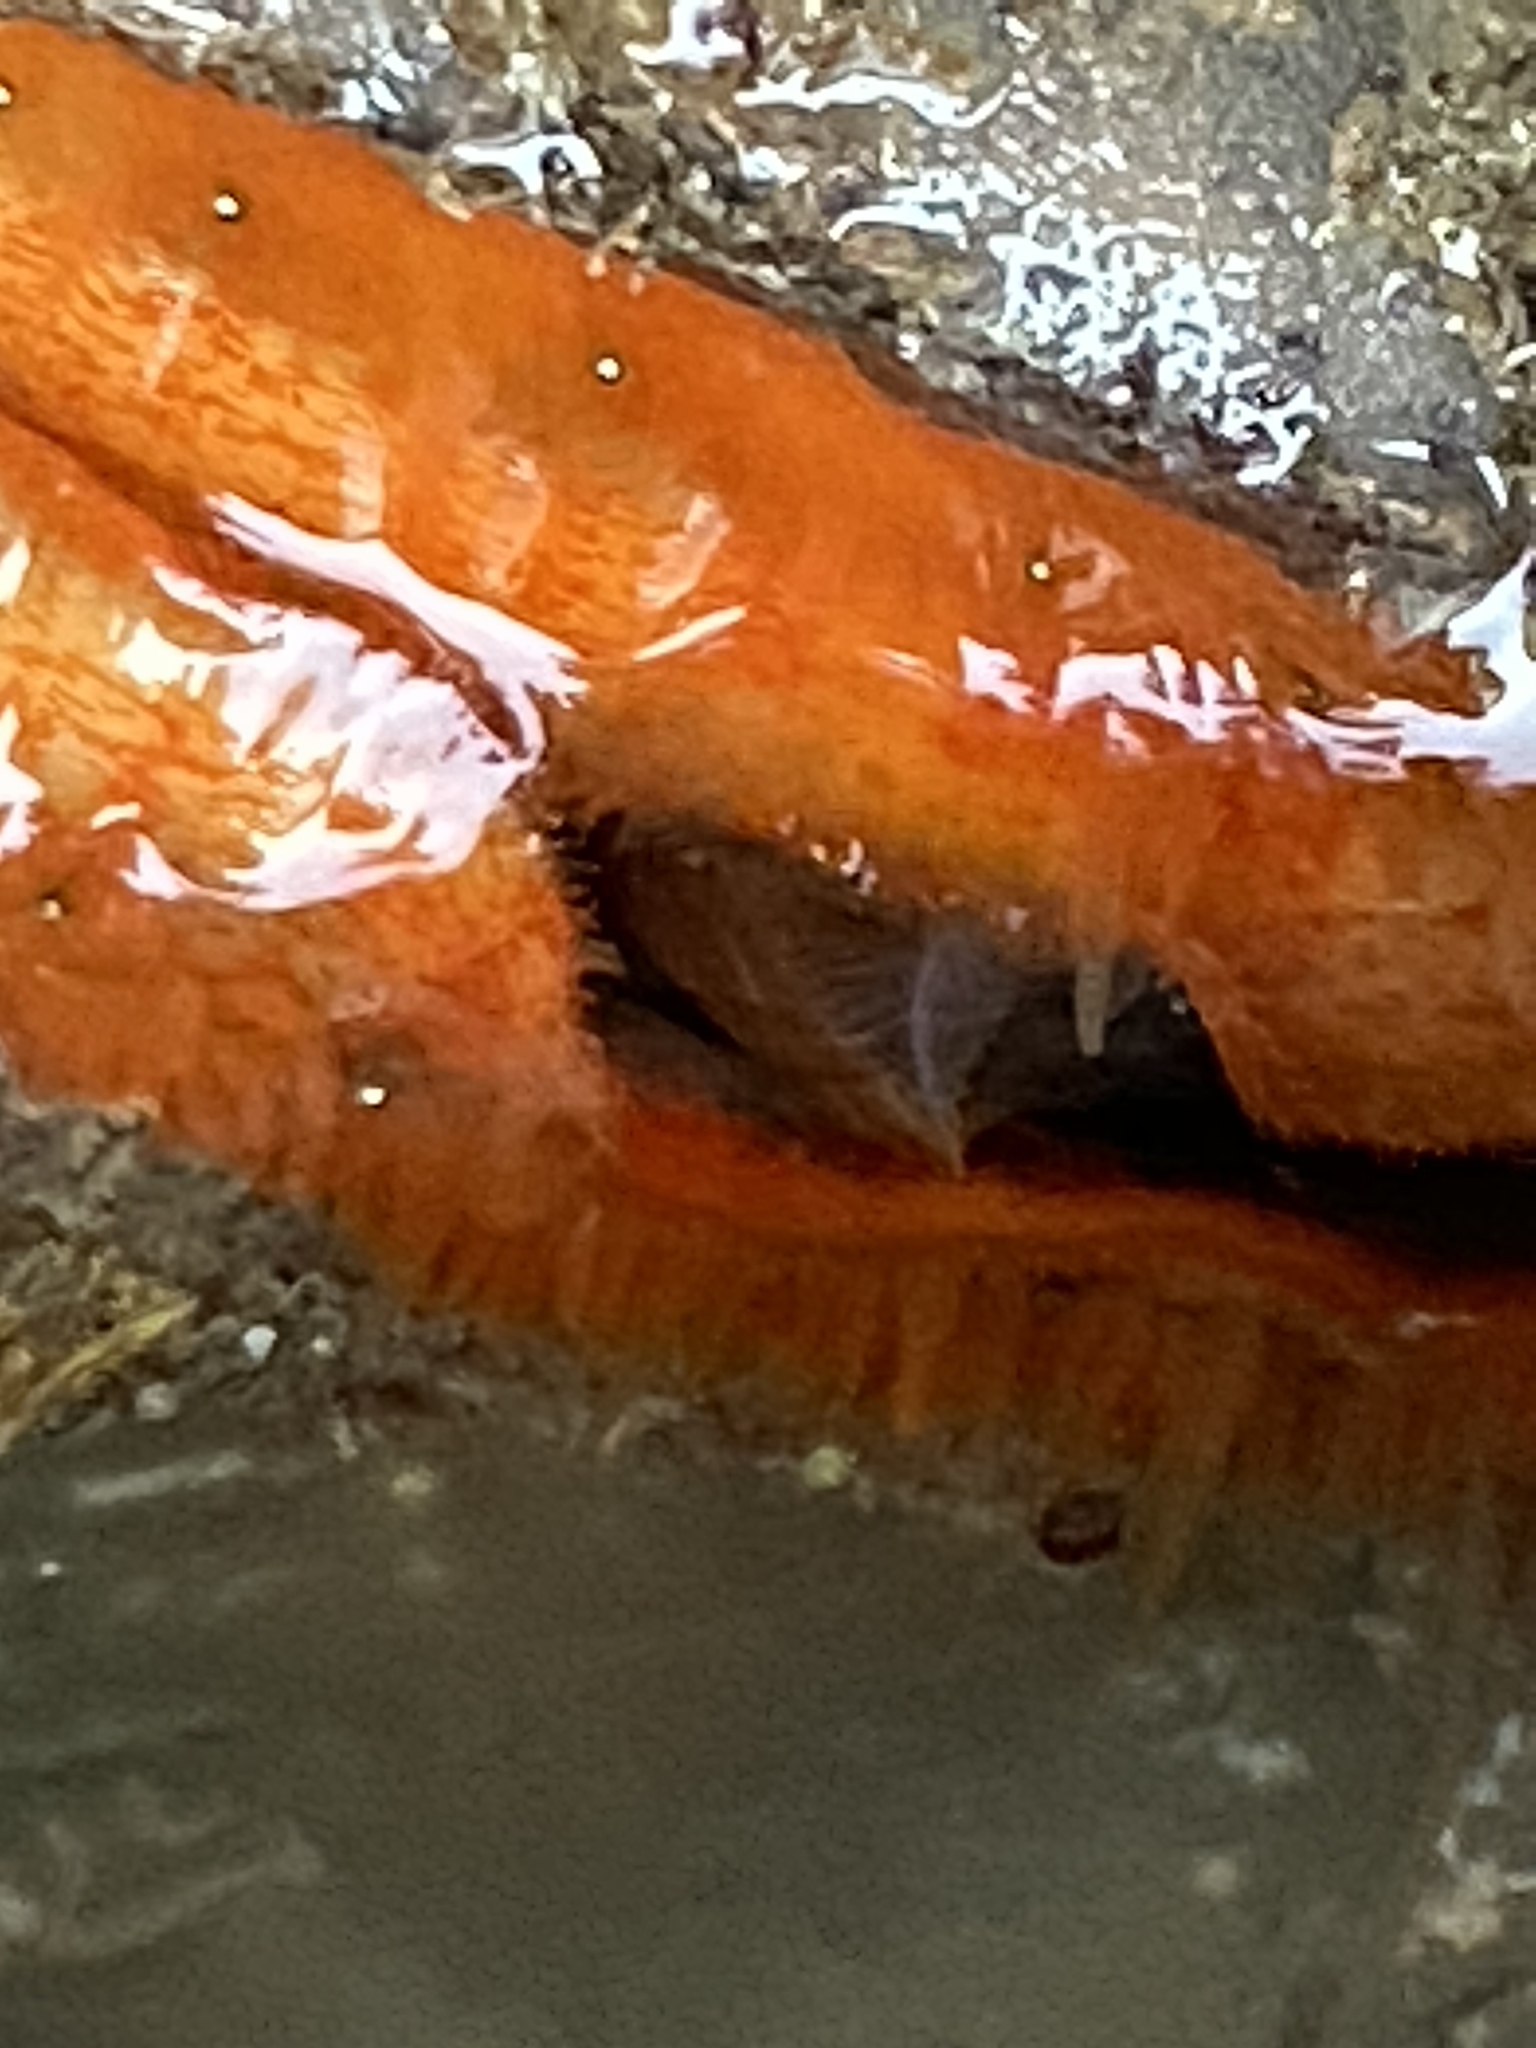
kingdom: Animalia
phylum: Mollusca
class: Bivalvia
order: Pectinida
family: Pectinidae
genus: Crassadoma
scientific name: Crassadoma gigantea
